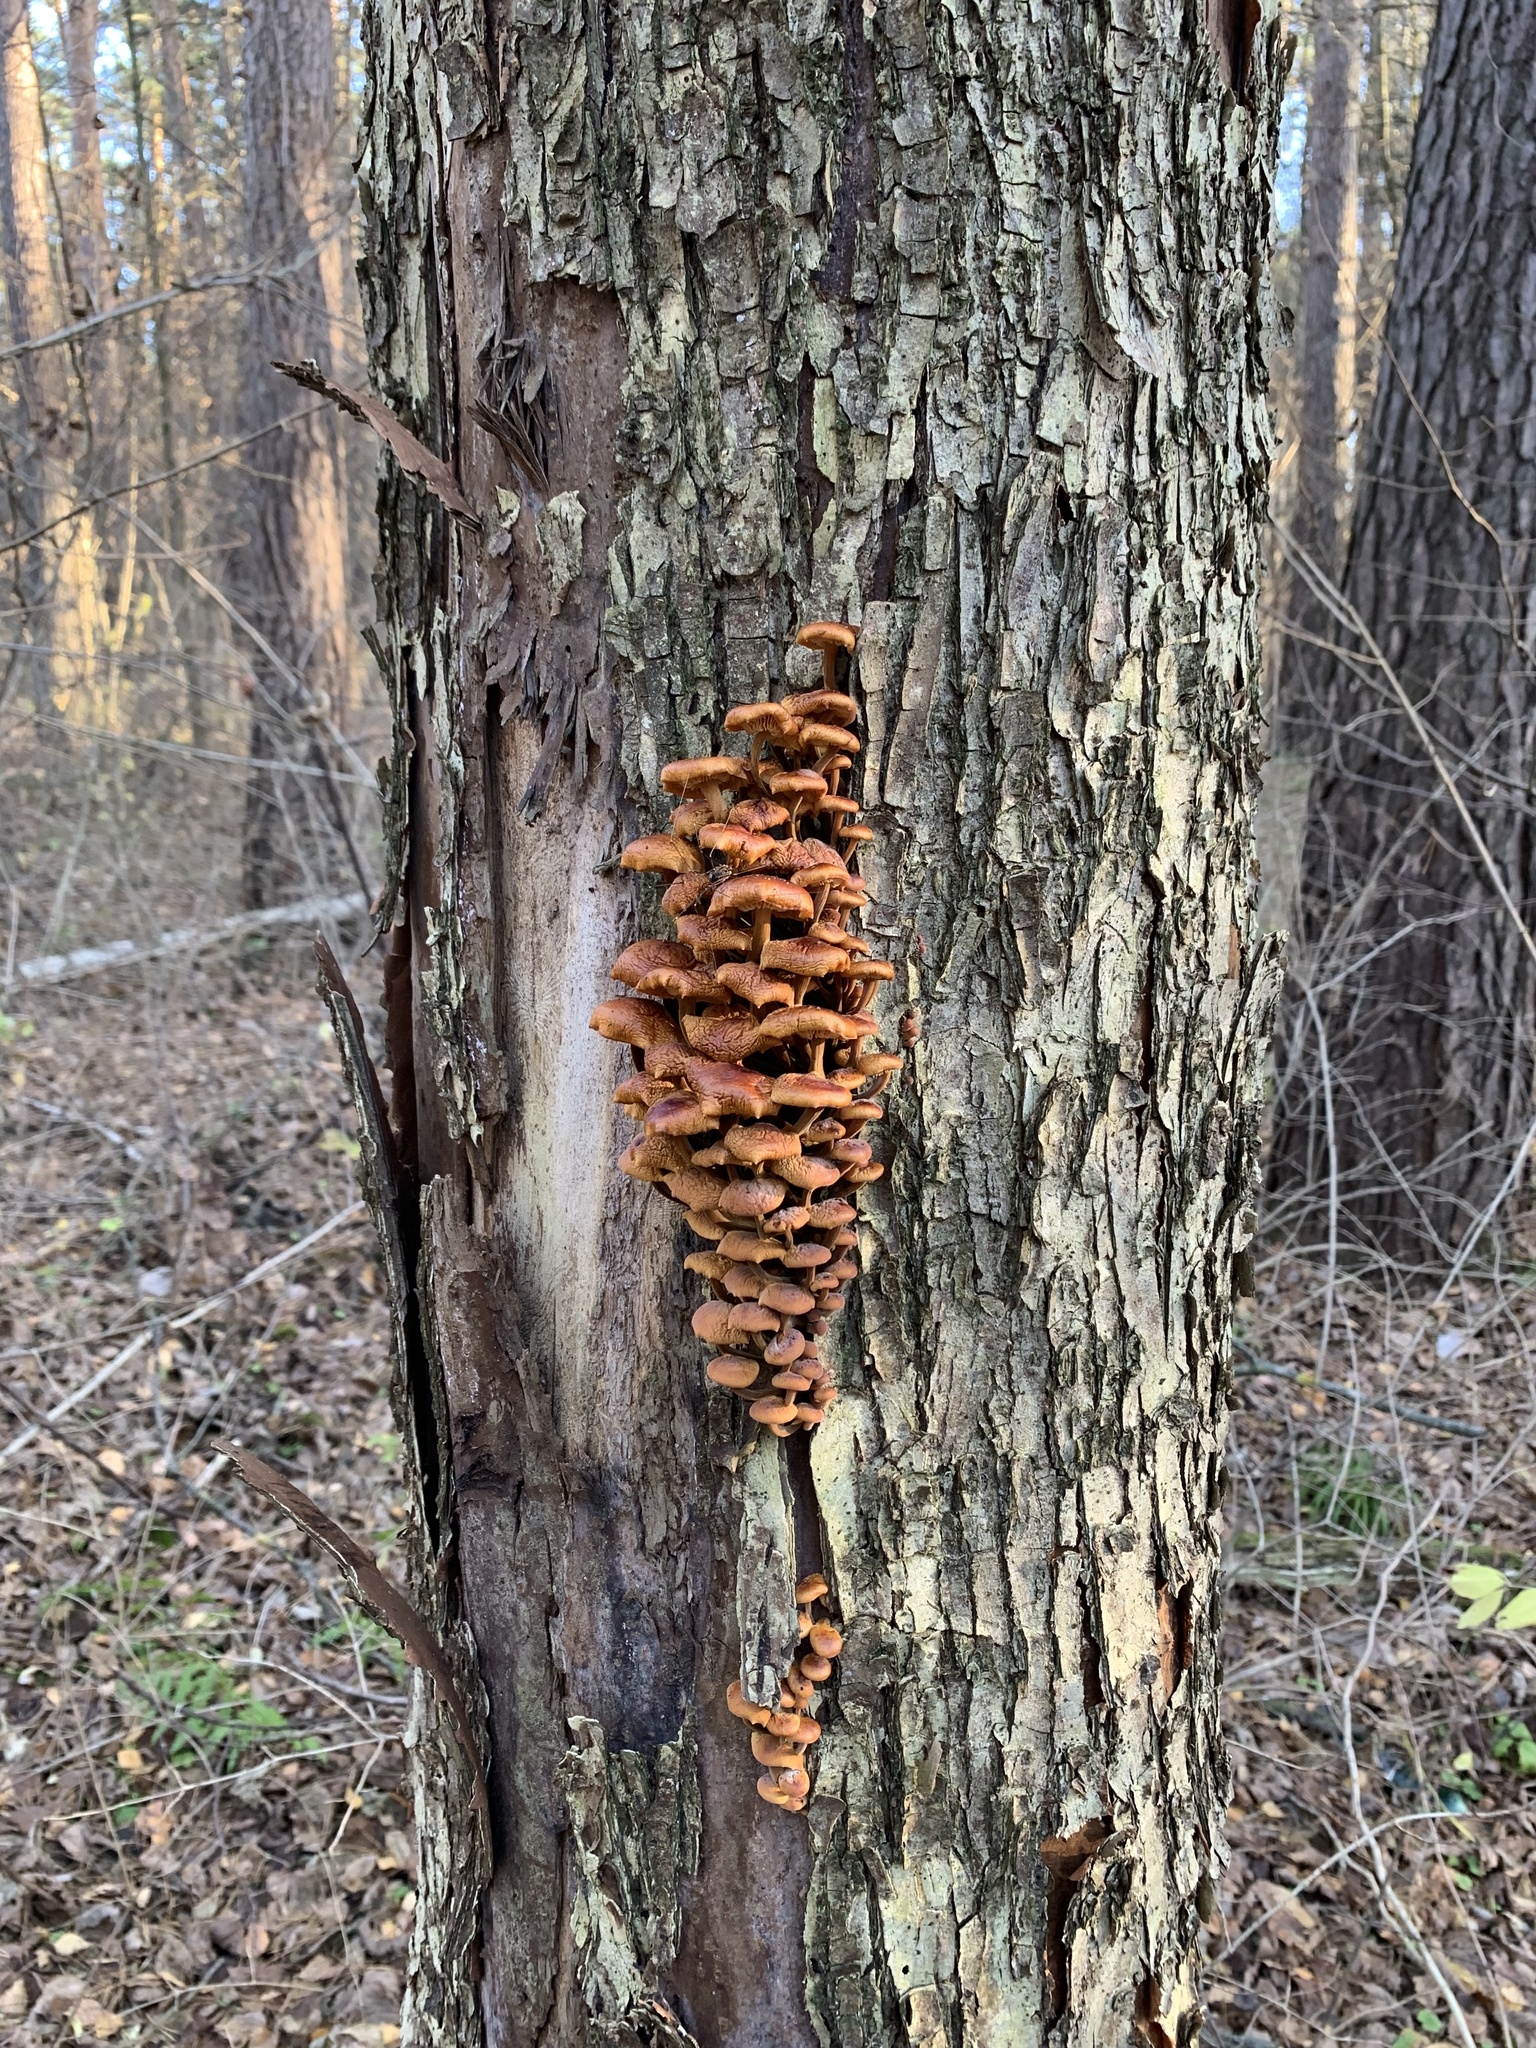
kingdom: Fungi
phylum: Basidiomycota
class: Agaricomycetes
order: Agaricales
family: Physalacriaceae
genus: Flammulina
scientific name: Flammulina
